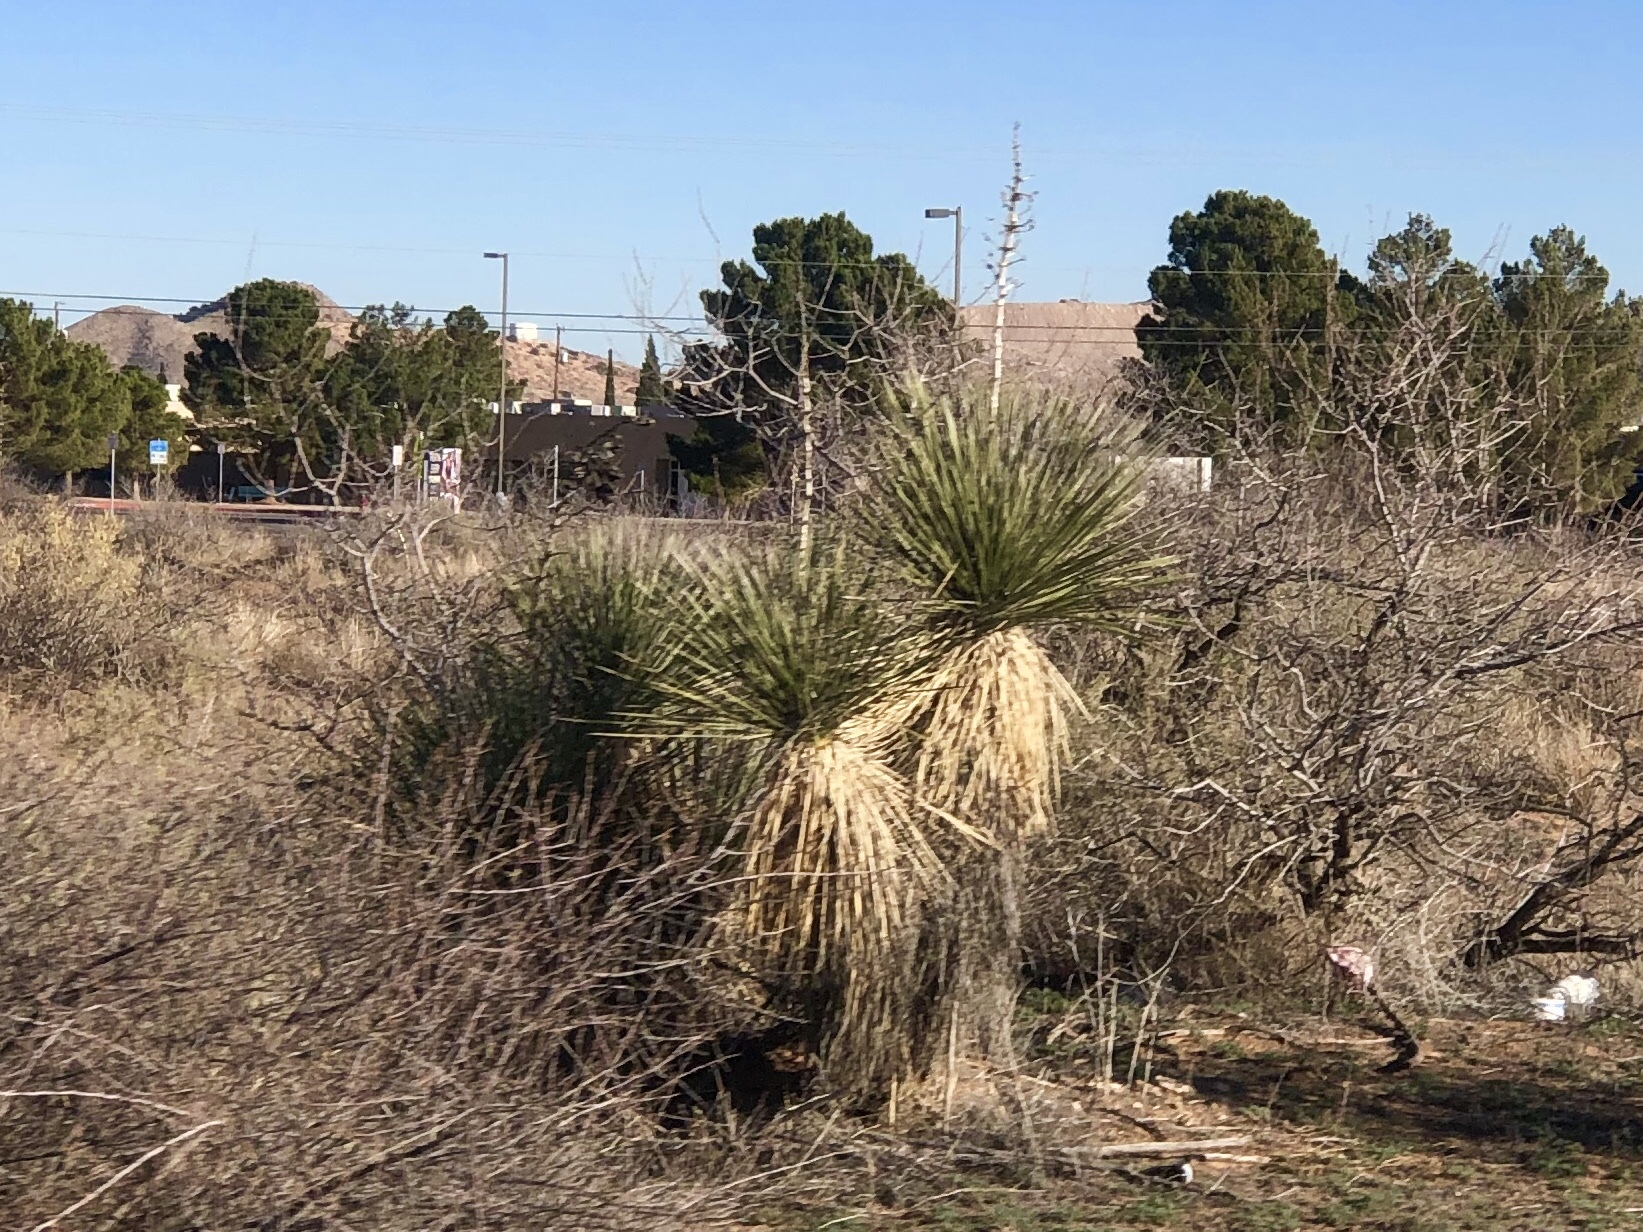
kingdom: Plantae
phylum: Tracheophyta
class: Liliopsida
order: Asparagales
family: Asparagaceae
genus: Yucca
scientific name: Yucca elata
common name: Palmella
